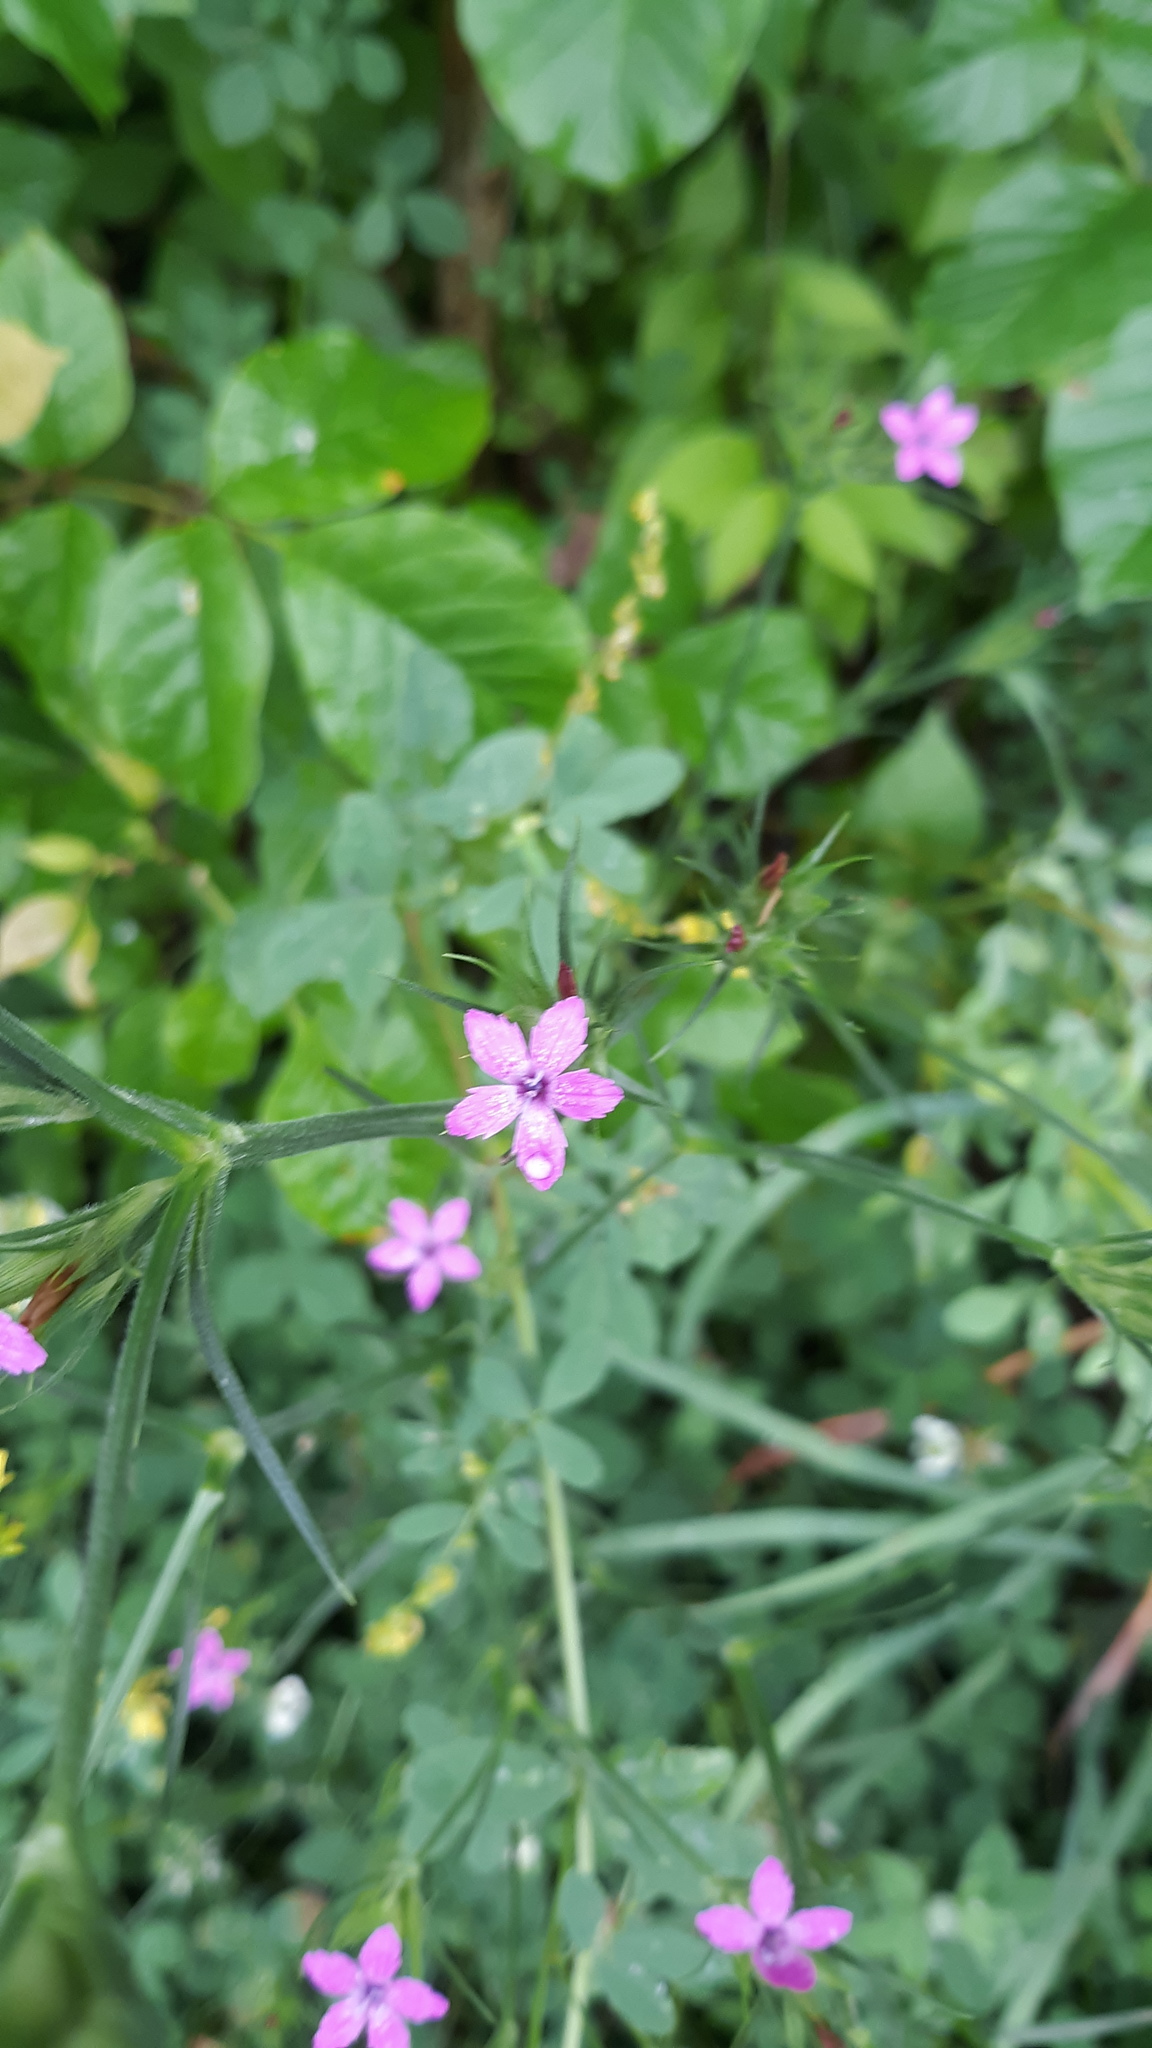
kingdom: Plantae
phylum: Tracheophyta
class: Magnoliopsida
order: Caryophyllales
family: Caryophyllaceae
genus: Dianthus
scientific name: Dianthus armeria
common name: Deptford pink
